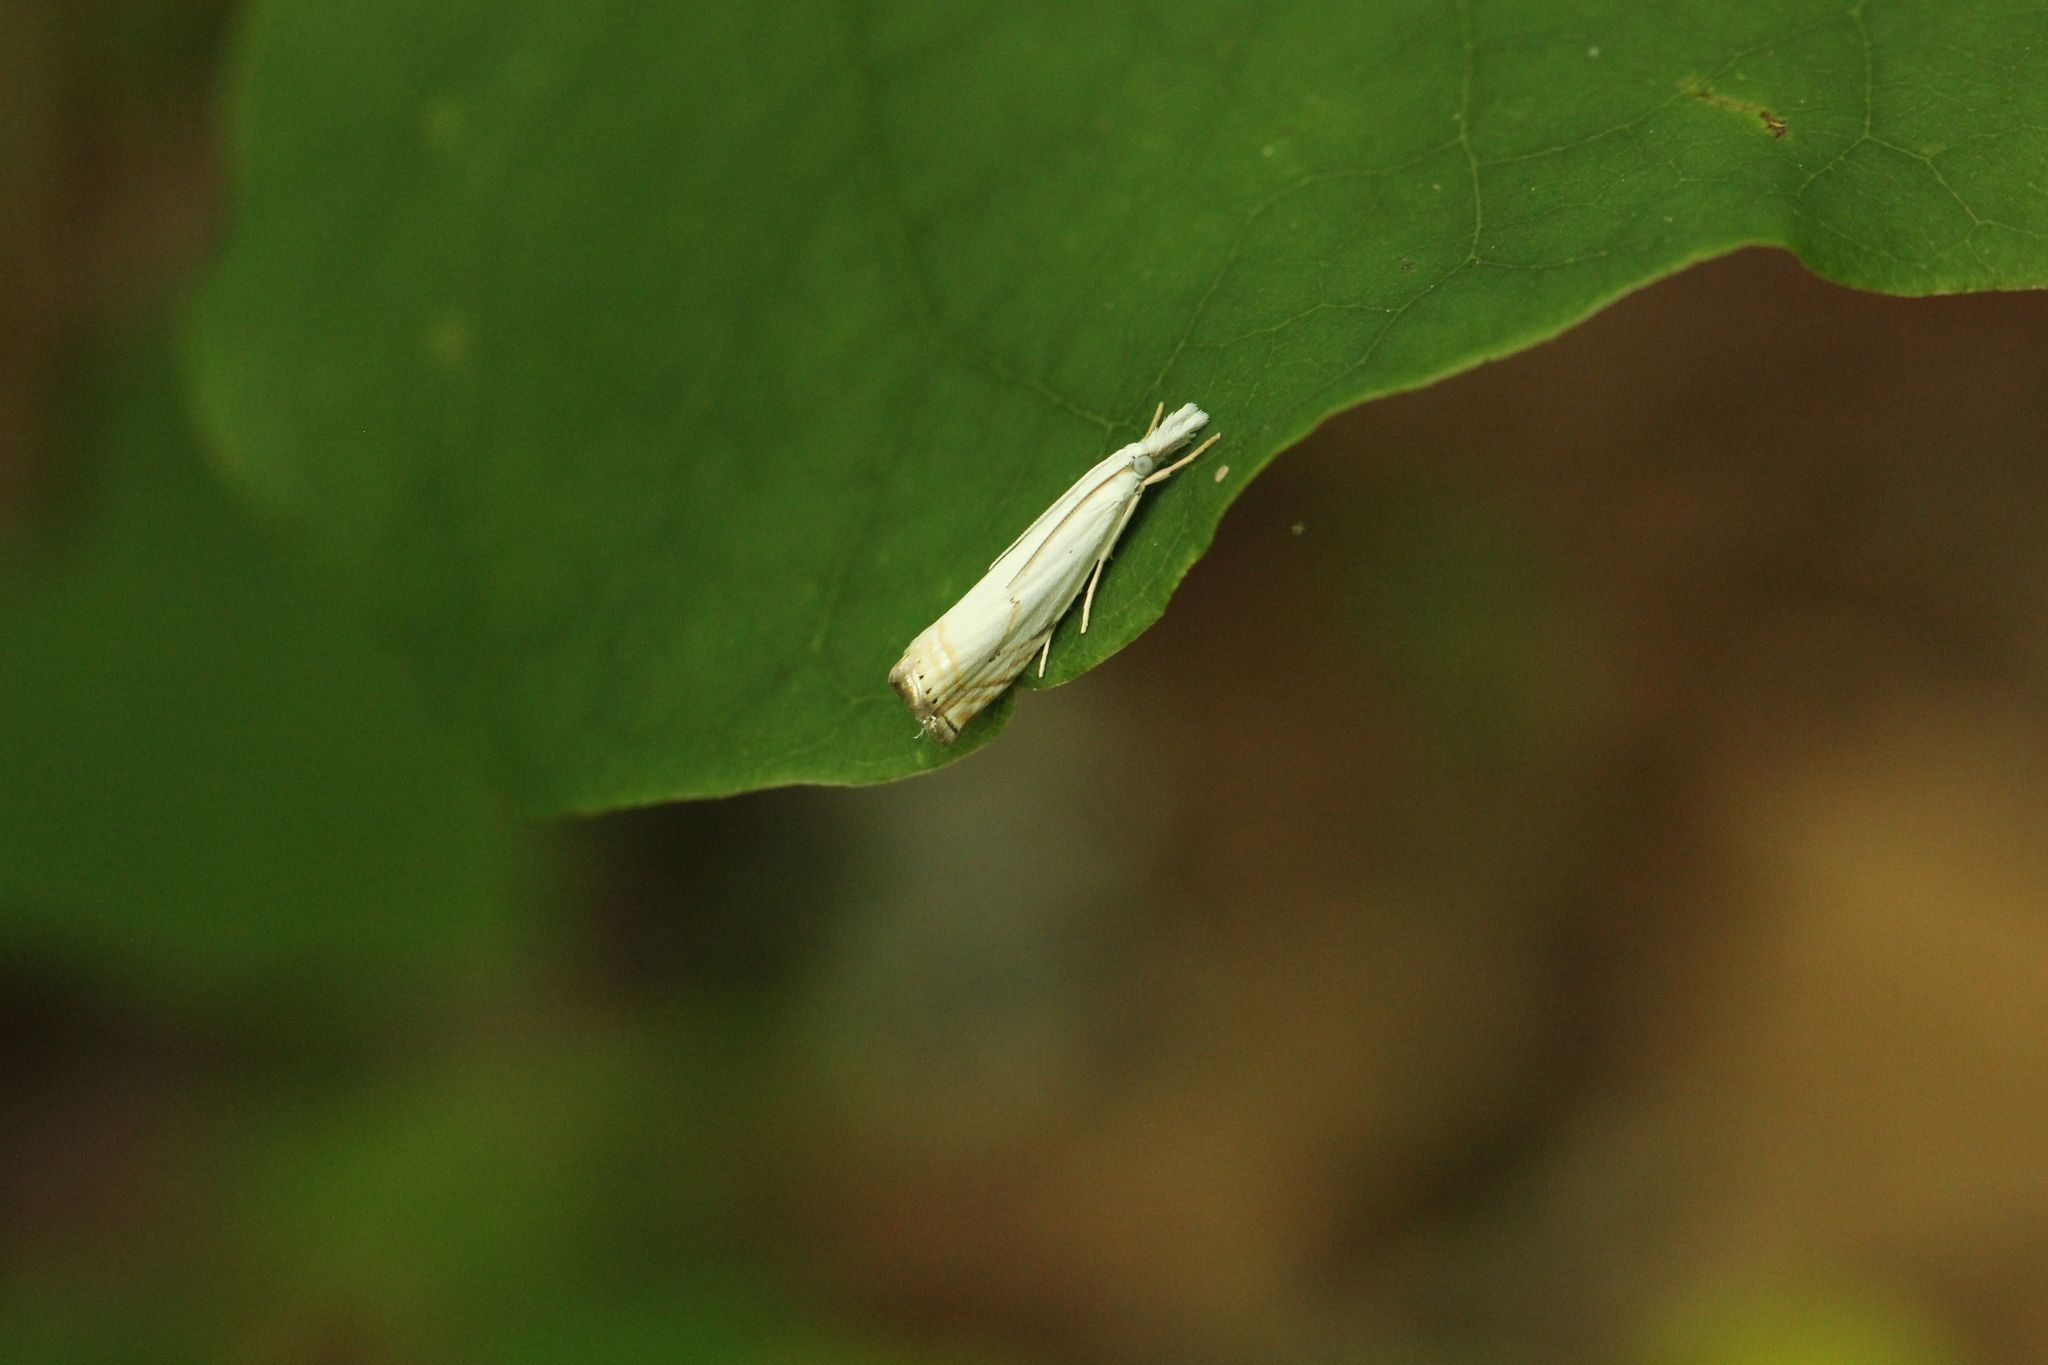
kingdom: Animalia
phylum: Arthropoda
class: Insecta
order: Lepidoptera
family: Crambidae
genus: Crambus
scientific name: Crambus albellus
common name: Small white grass-veneer
